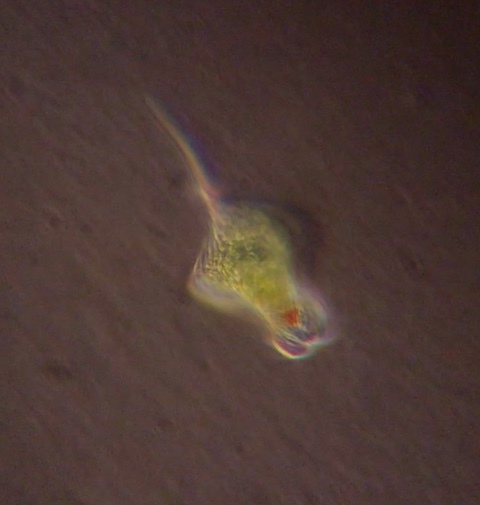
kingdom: Protozoa
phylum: Euglenozoa
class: Euglenoidea
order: Euglenida
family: Phacidae
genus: Phacus
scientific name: Phacus tortus
